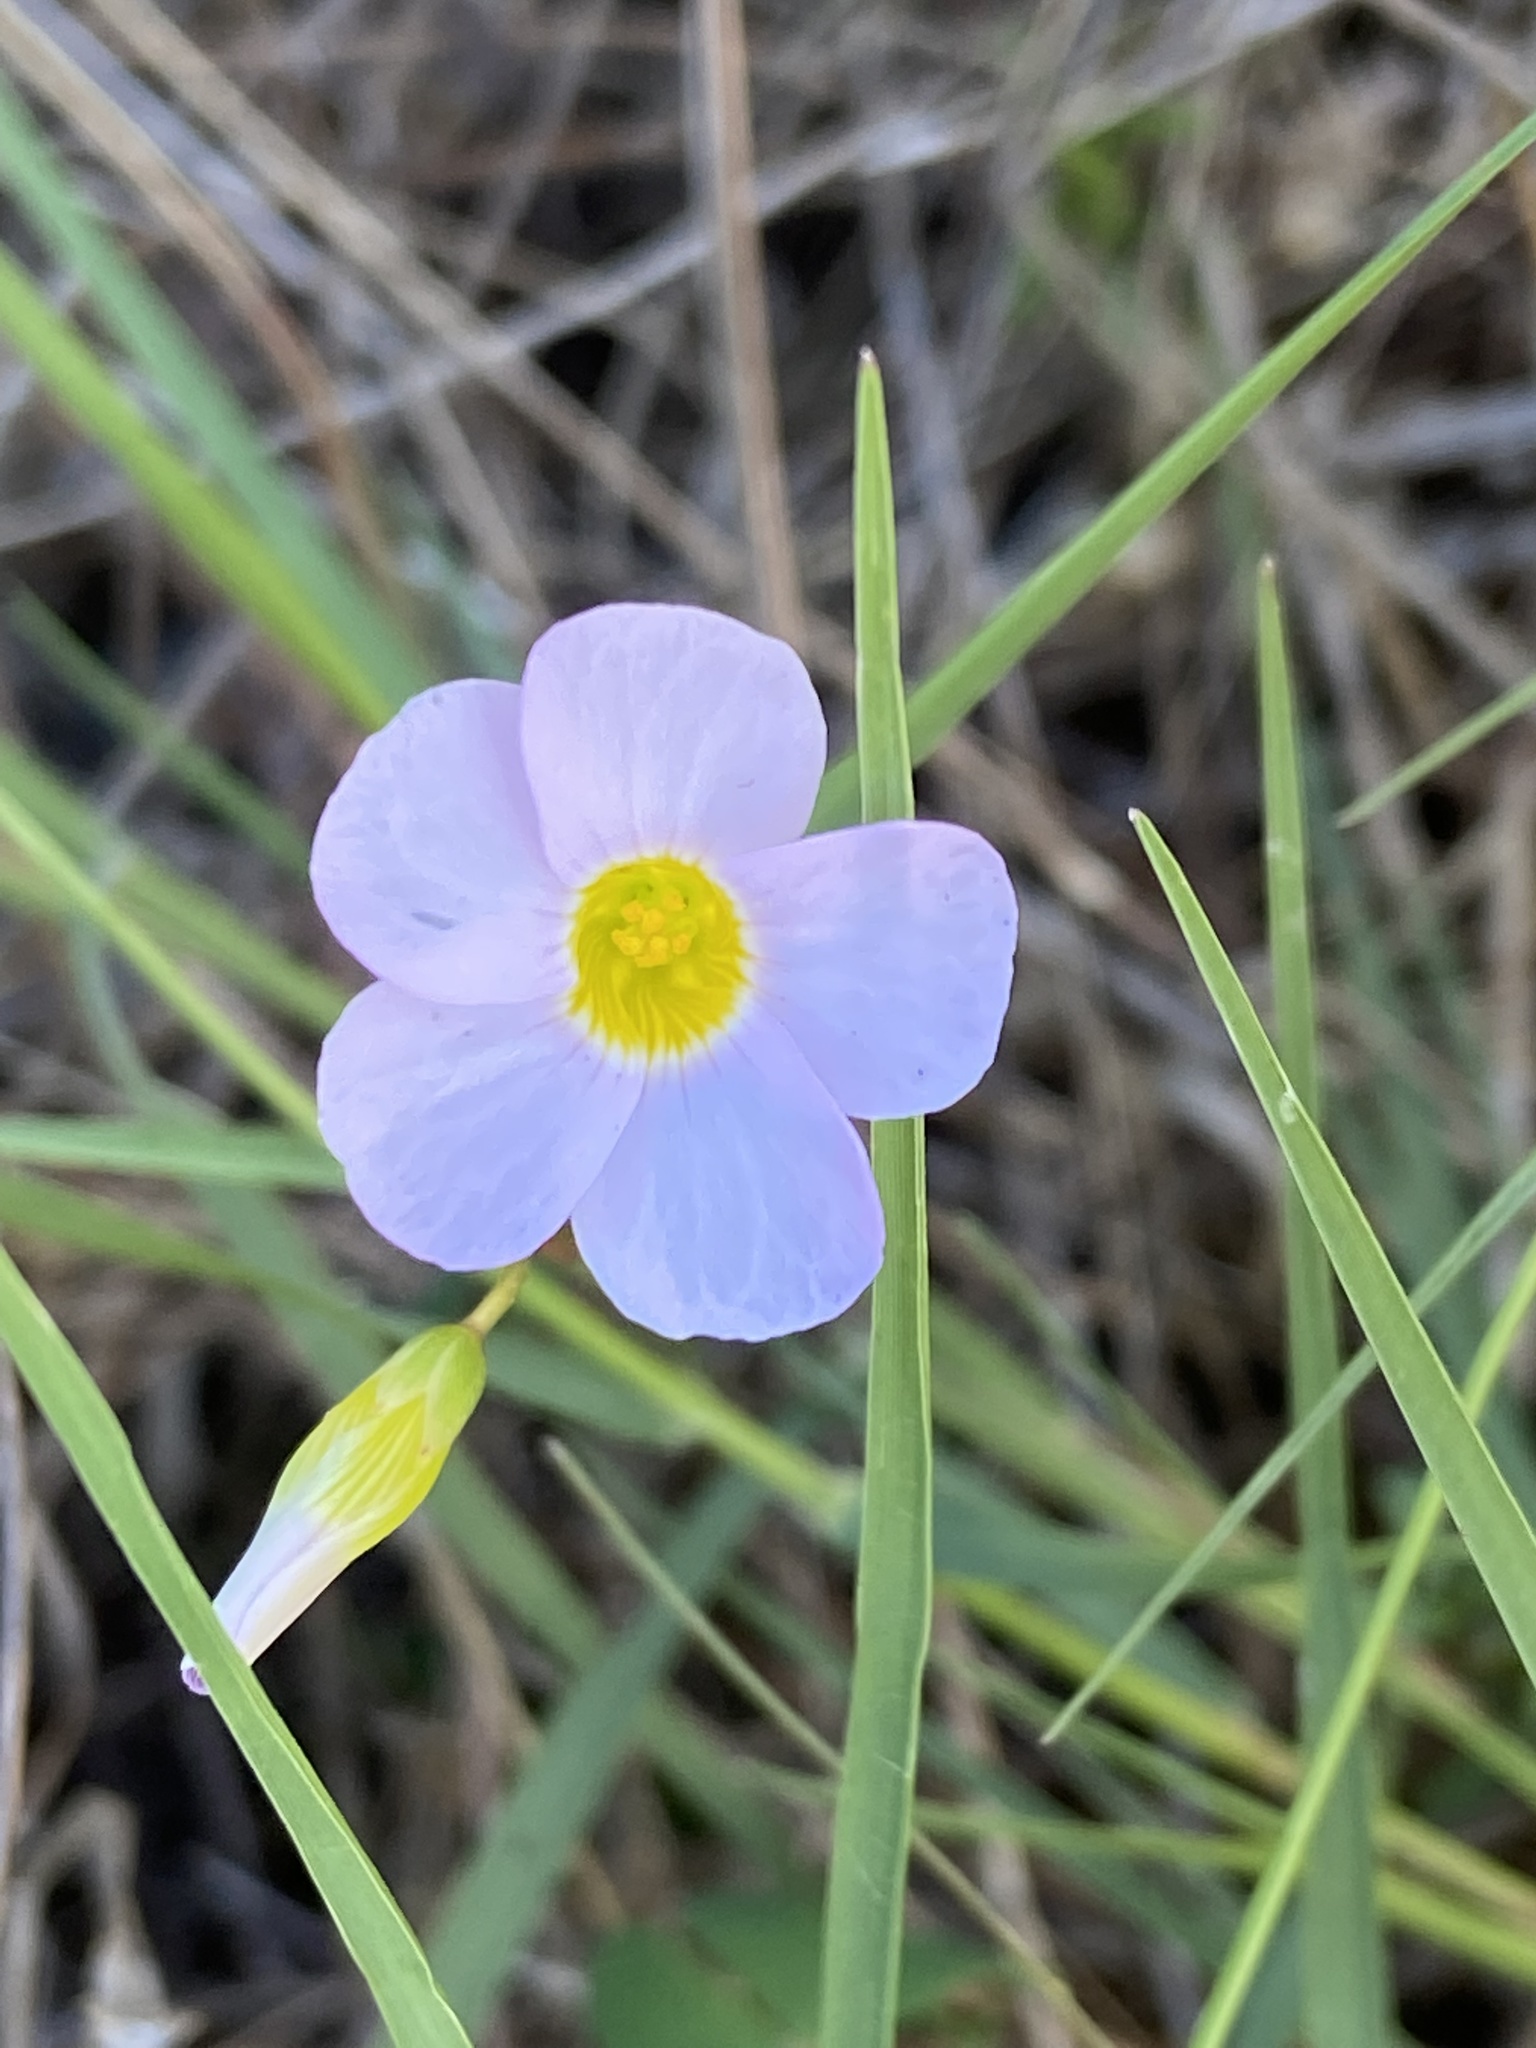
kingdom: Plantae
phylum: Tracheophyta
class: Magnoliopsida
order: Oxalidales
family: Oxalidaceae
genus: Oxalis
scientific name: Oxalis caprina
